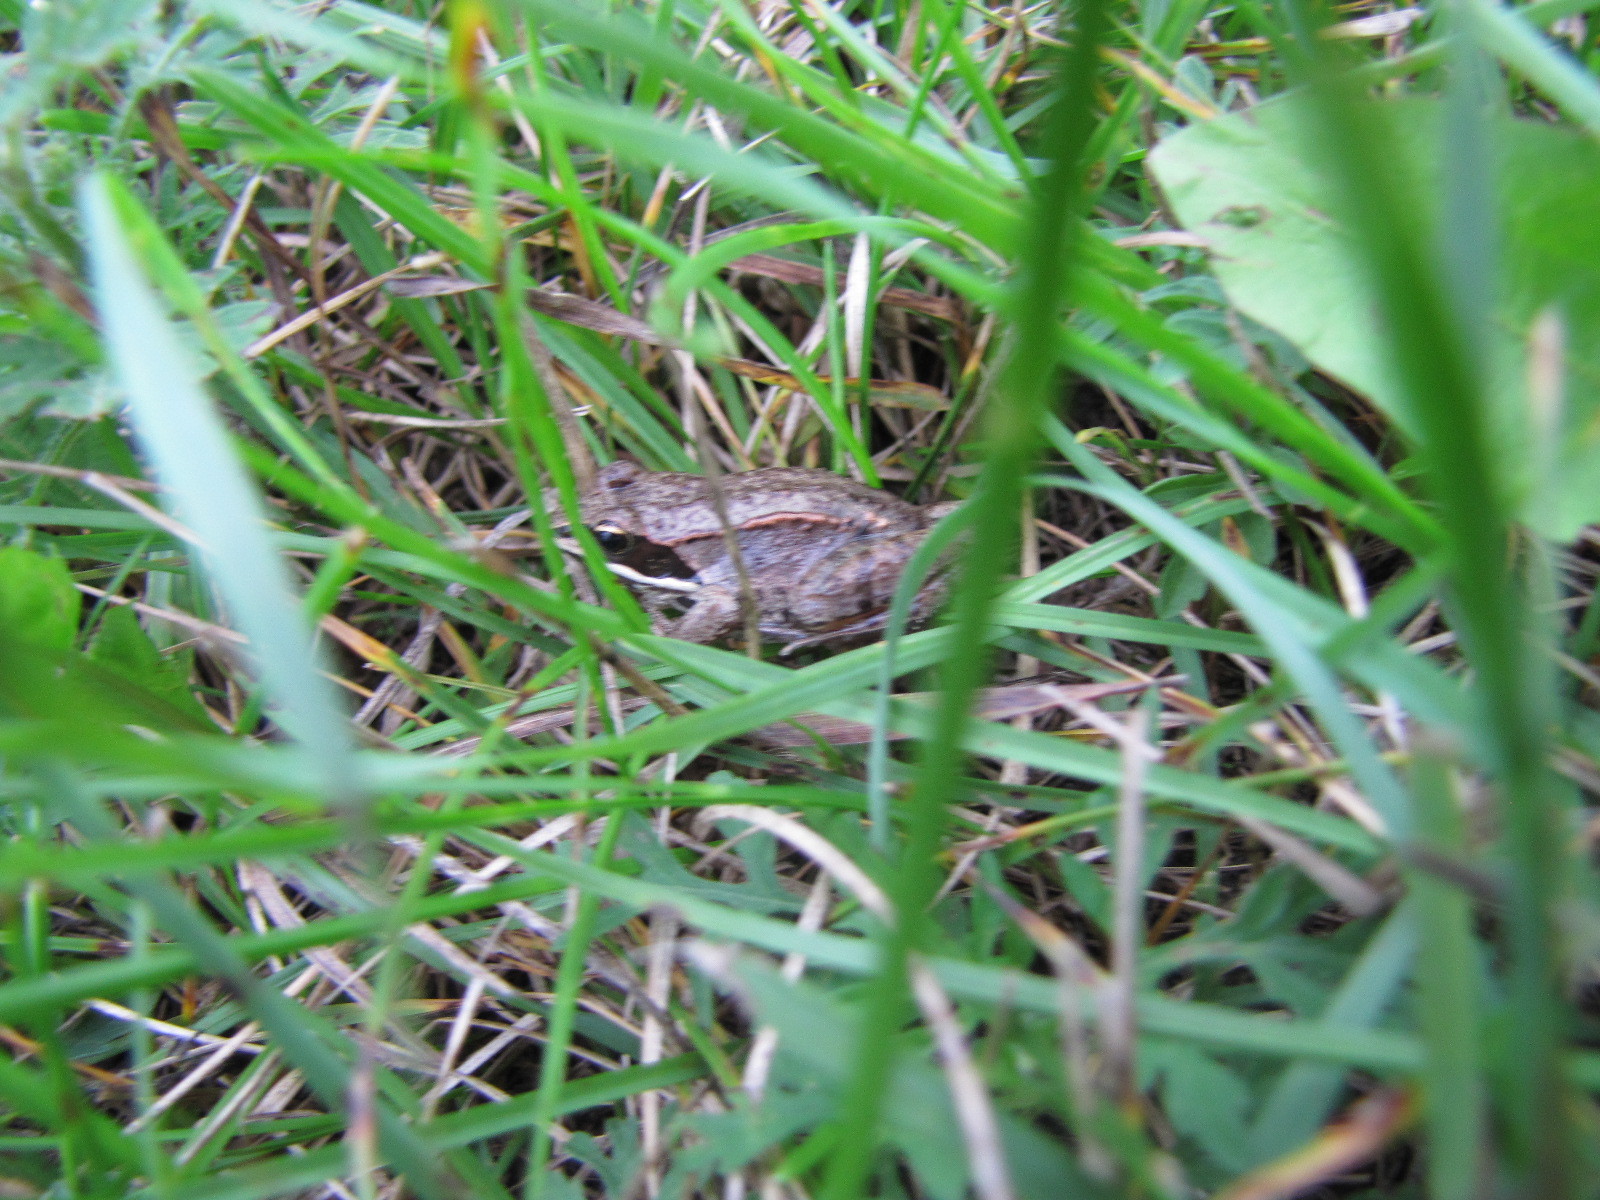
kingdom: Animalia
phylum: Chordata
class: Amphibia
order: Anura
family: Ranidae
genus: Lithobates
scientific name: Lithobates sylvaticus
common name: Wood frog
